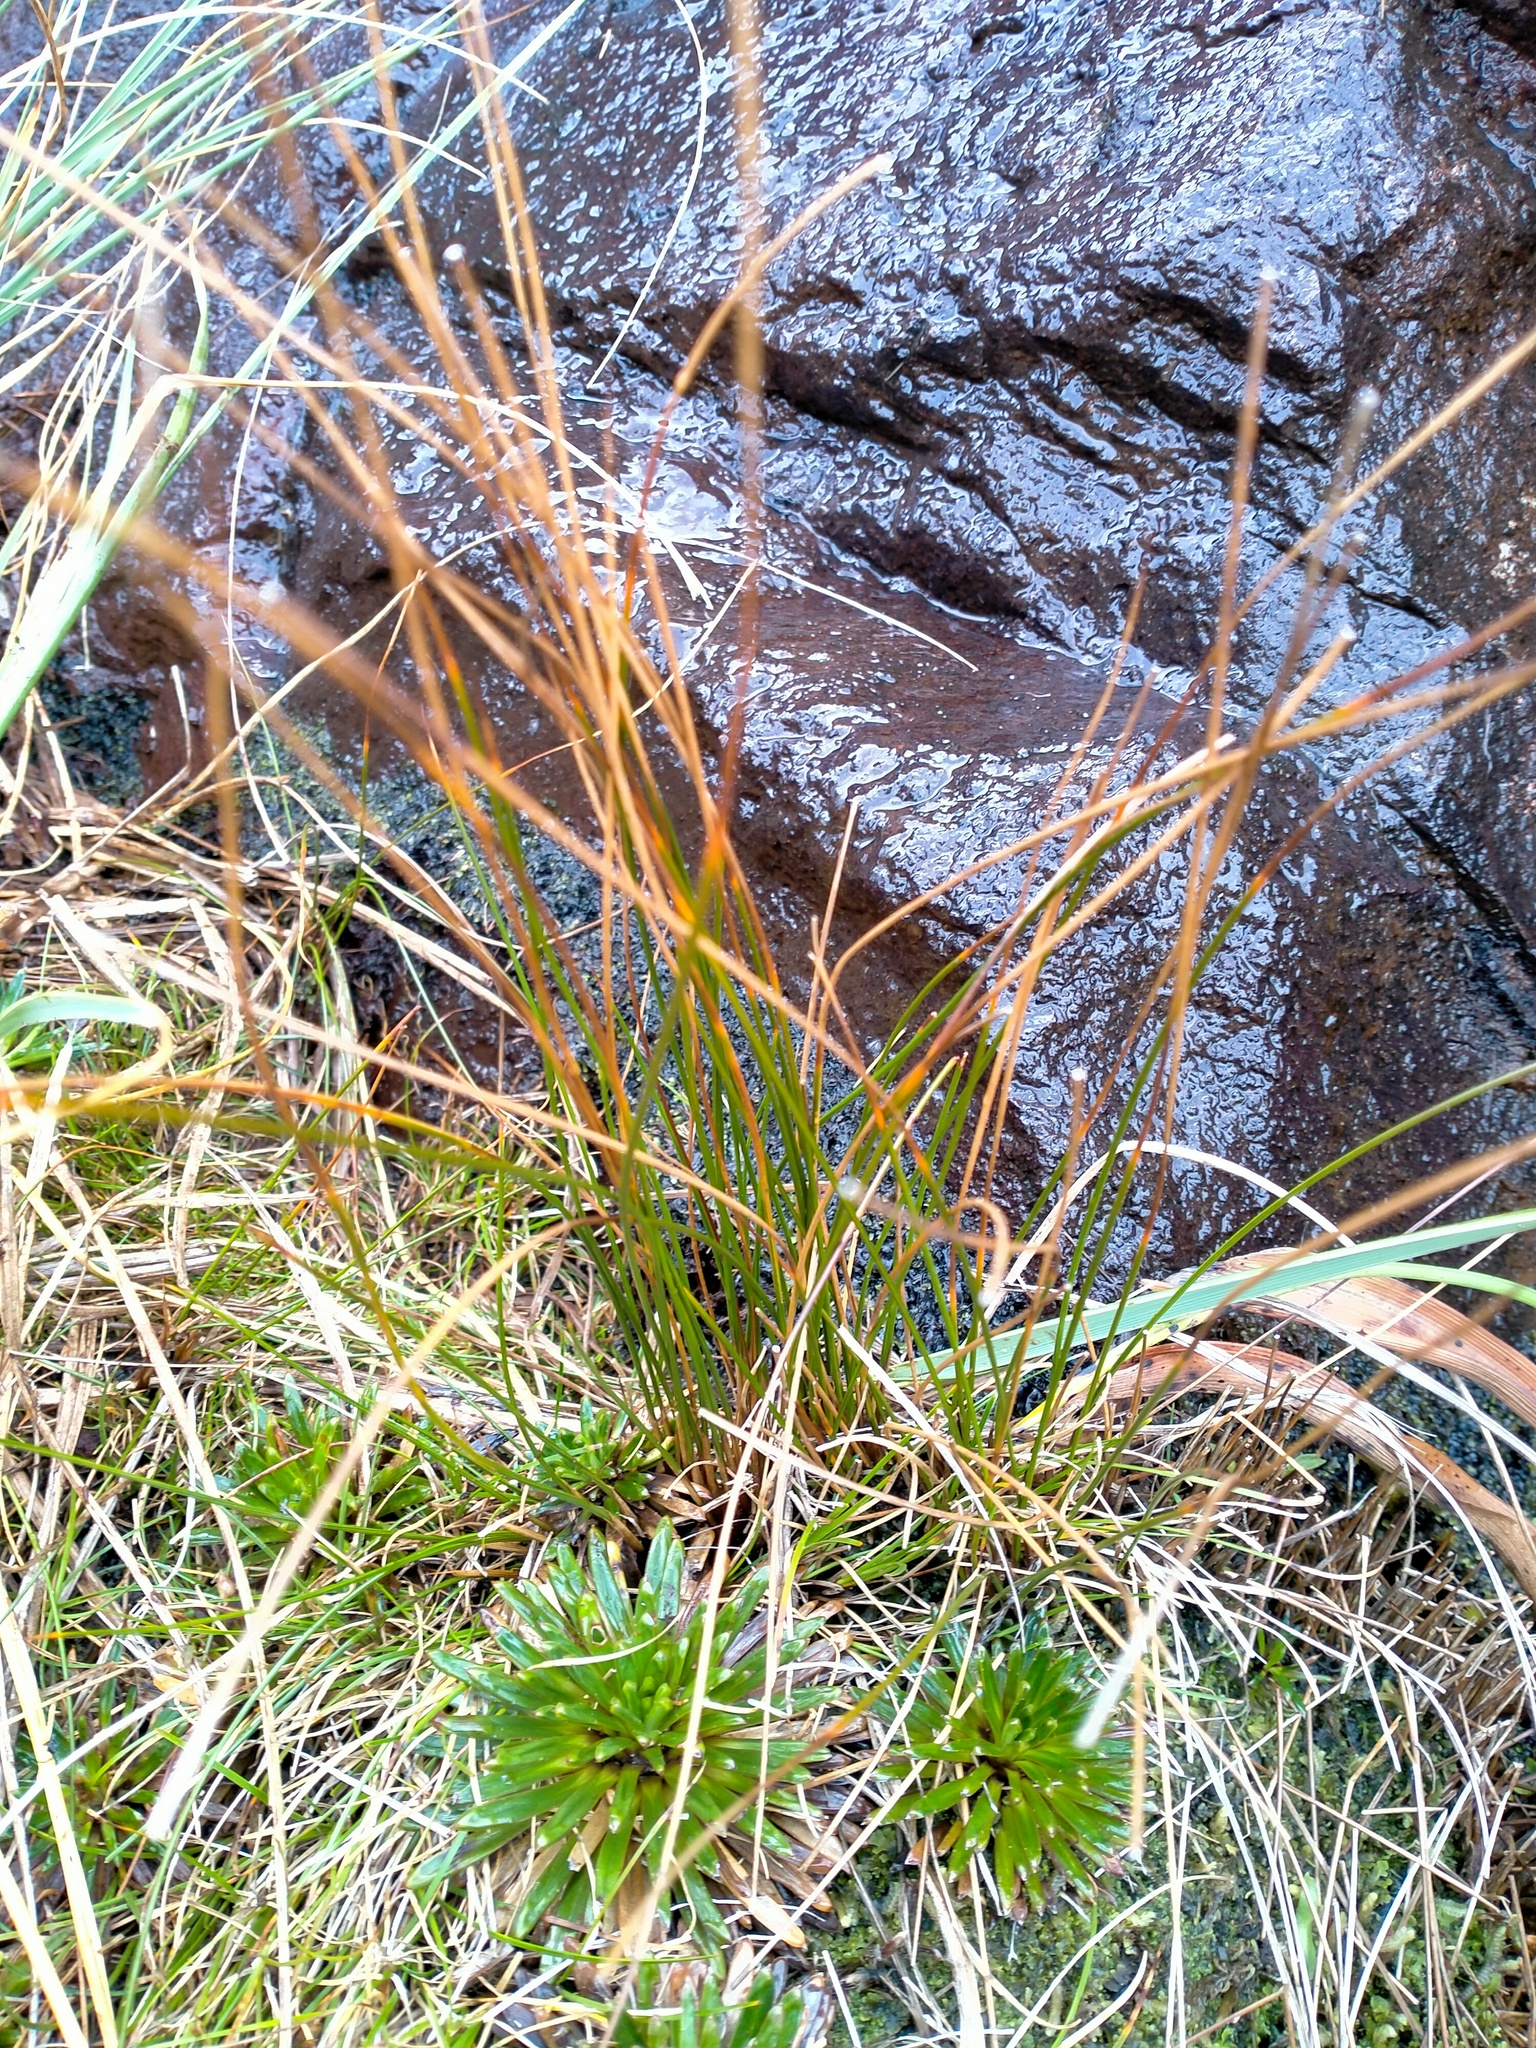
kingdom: Plantae
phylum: Tracheophyta
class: Liliopsida
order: Poales
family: Juncaceae
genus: Marsippospermum
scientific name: Marsippospermum gracile
